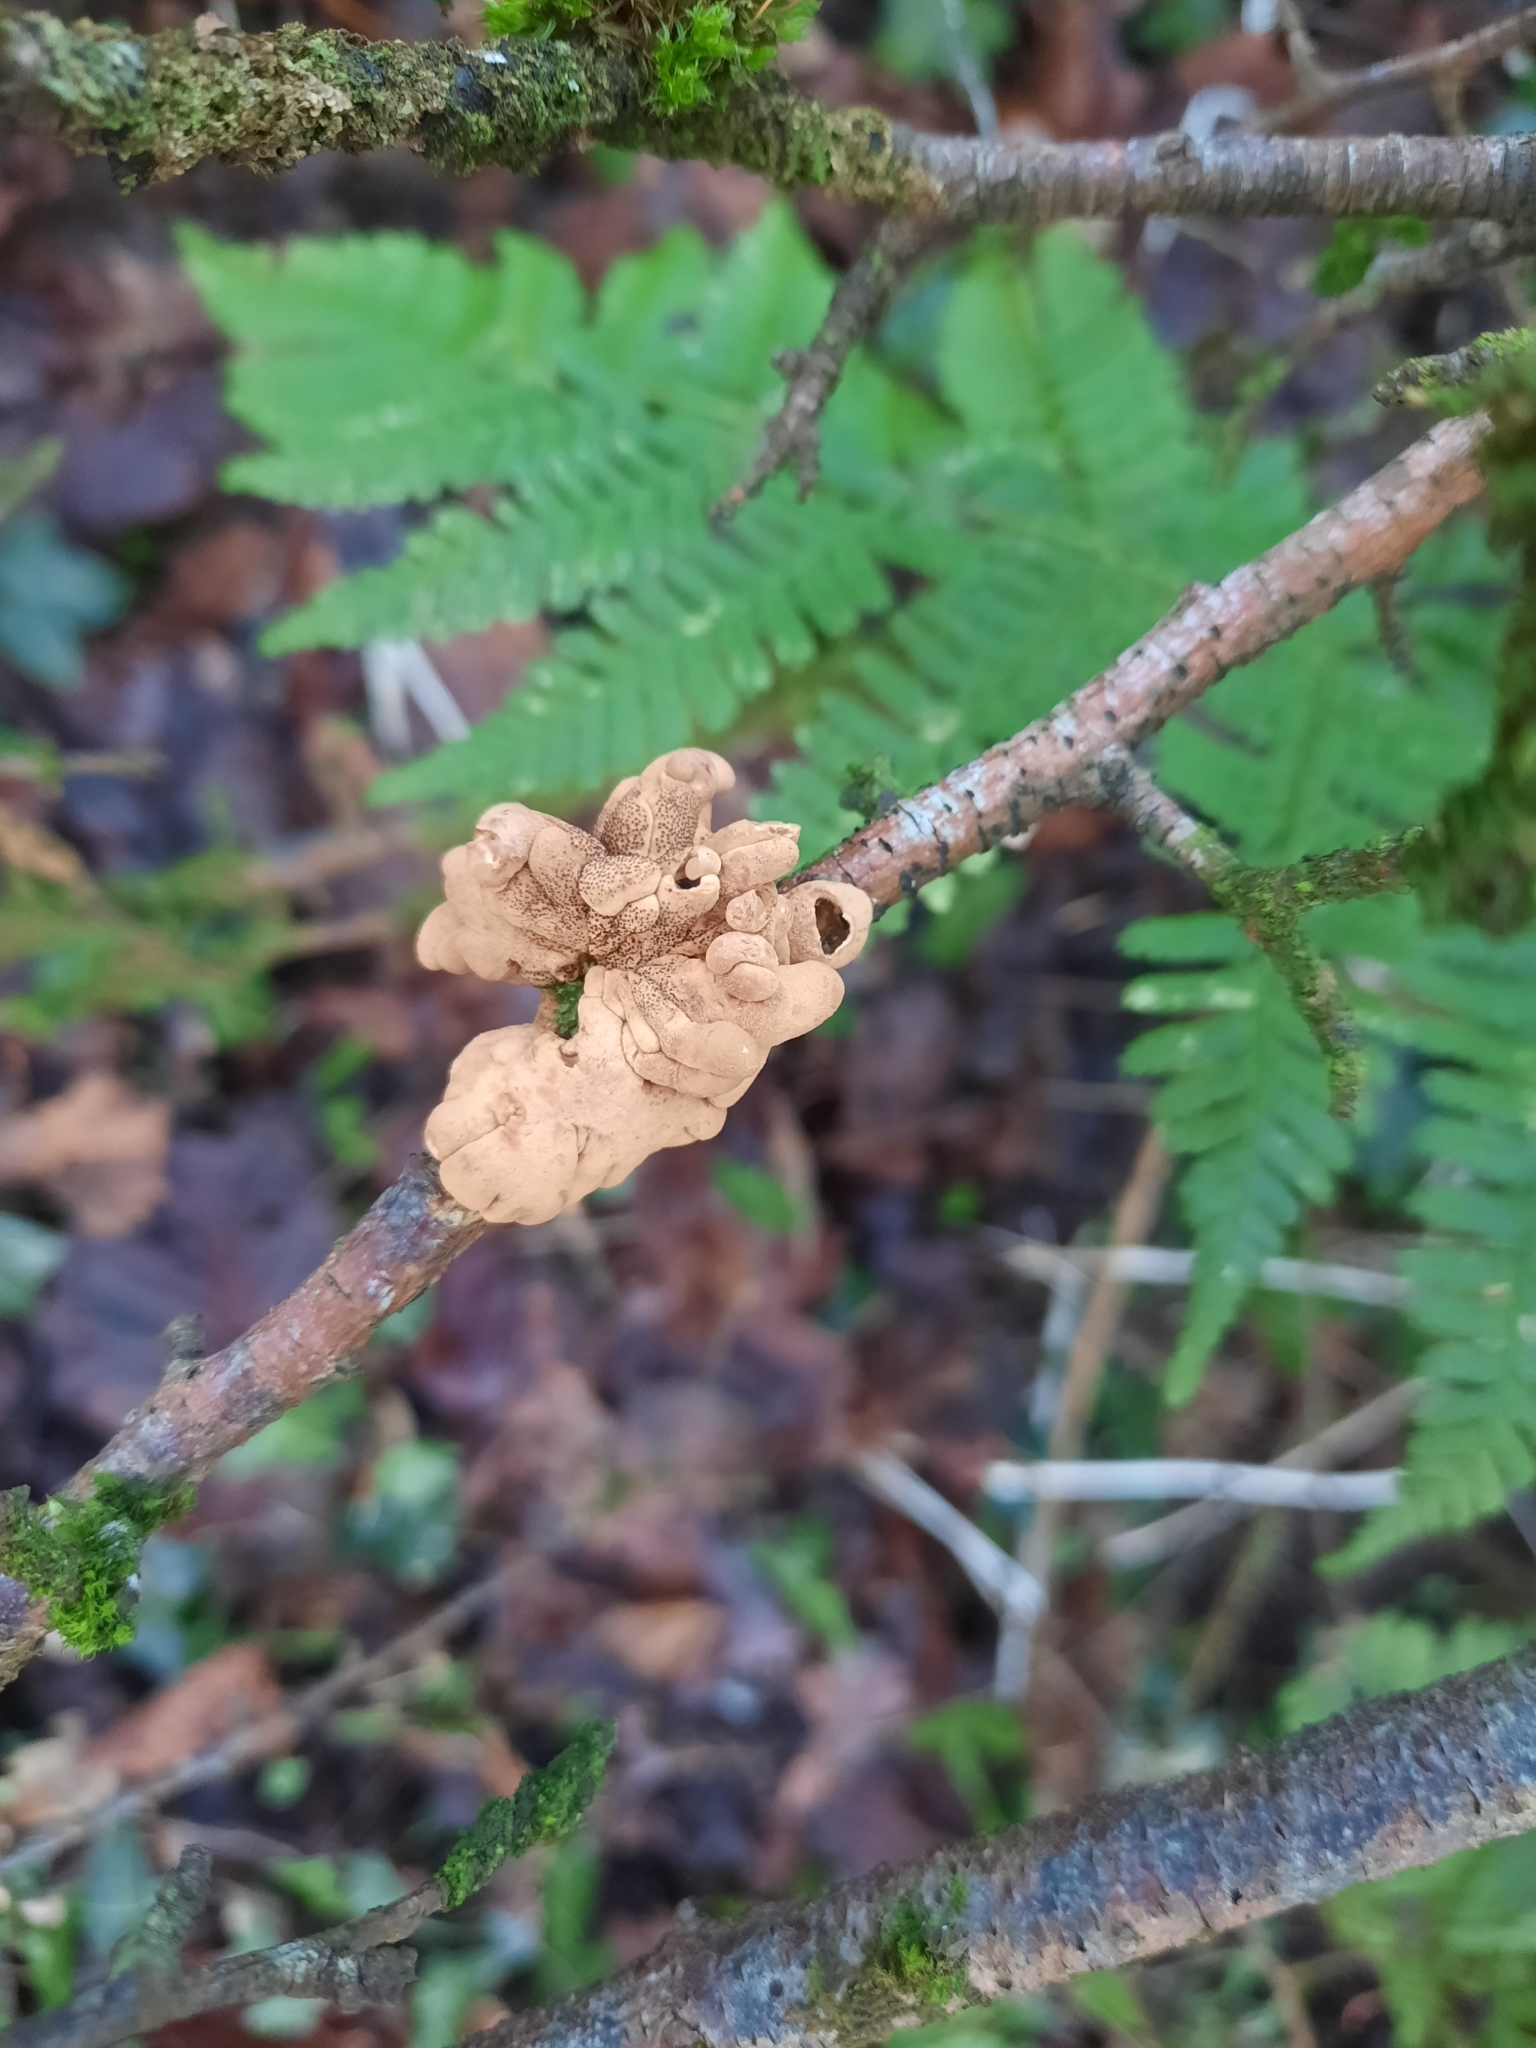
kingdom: Fungi
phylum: Ascomycota
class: Sordariomycetes
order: Hypocreales
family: Hypocreaceae
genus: Hypocreopsis
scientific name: Hypocreopsis rhododendri
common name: Hazel gloves
